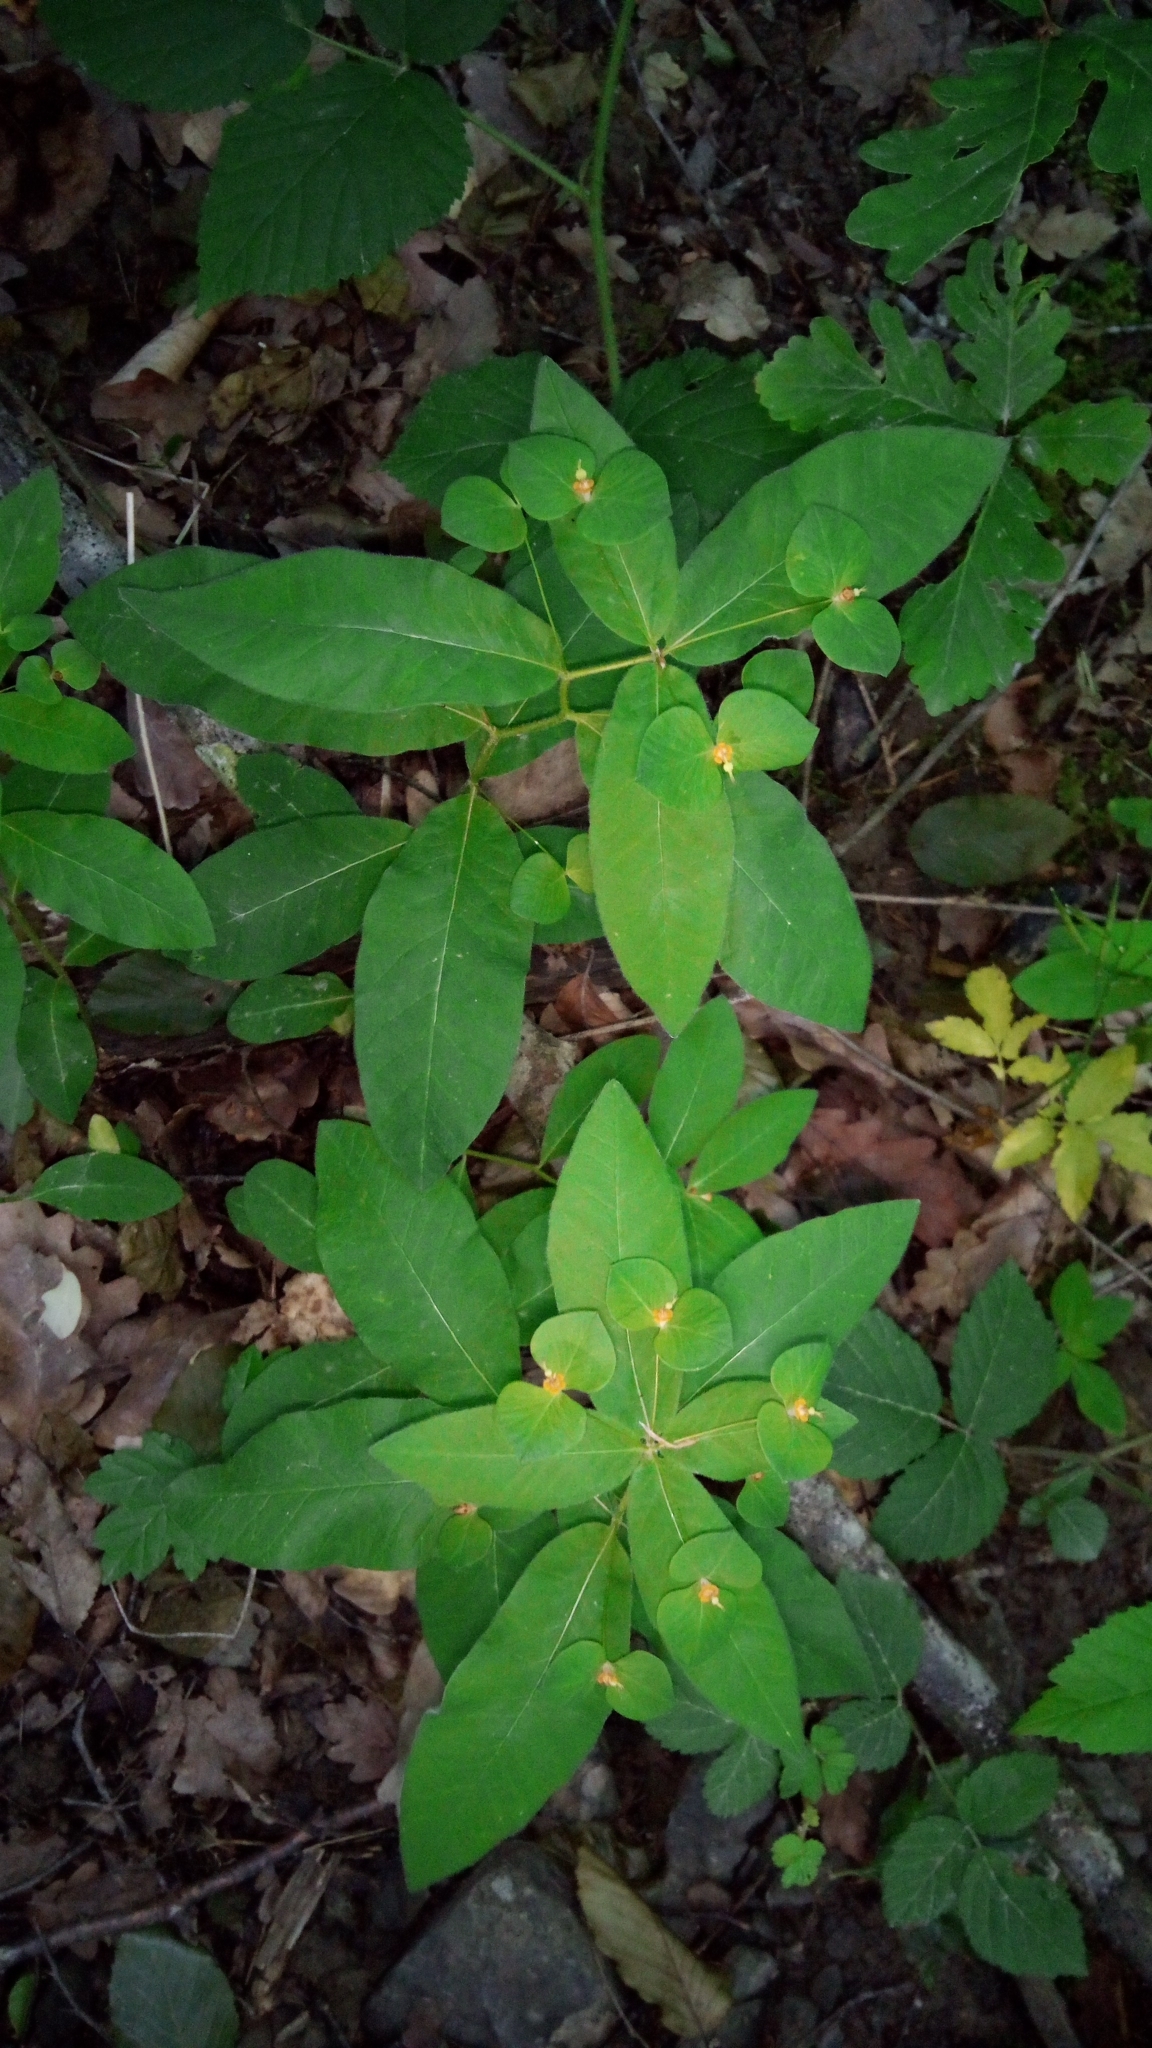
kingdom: Plantae
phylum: Tracheophyta
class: Magnoliopsida
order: Malpighiales
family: Euphorbiaceae
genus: Euphorbia
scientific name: Euphorbia squamosa
